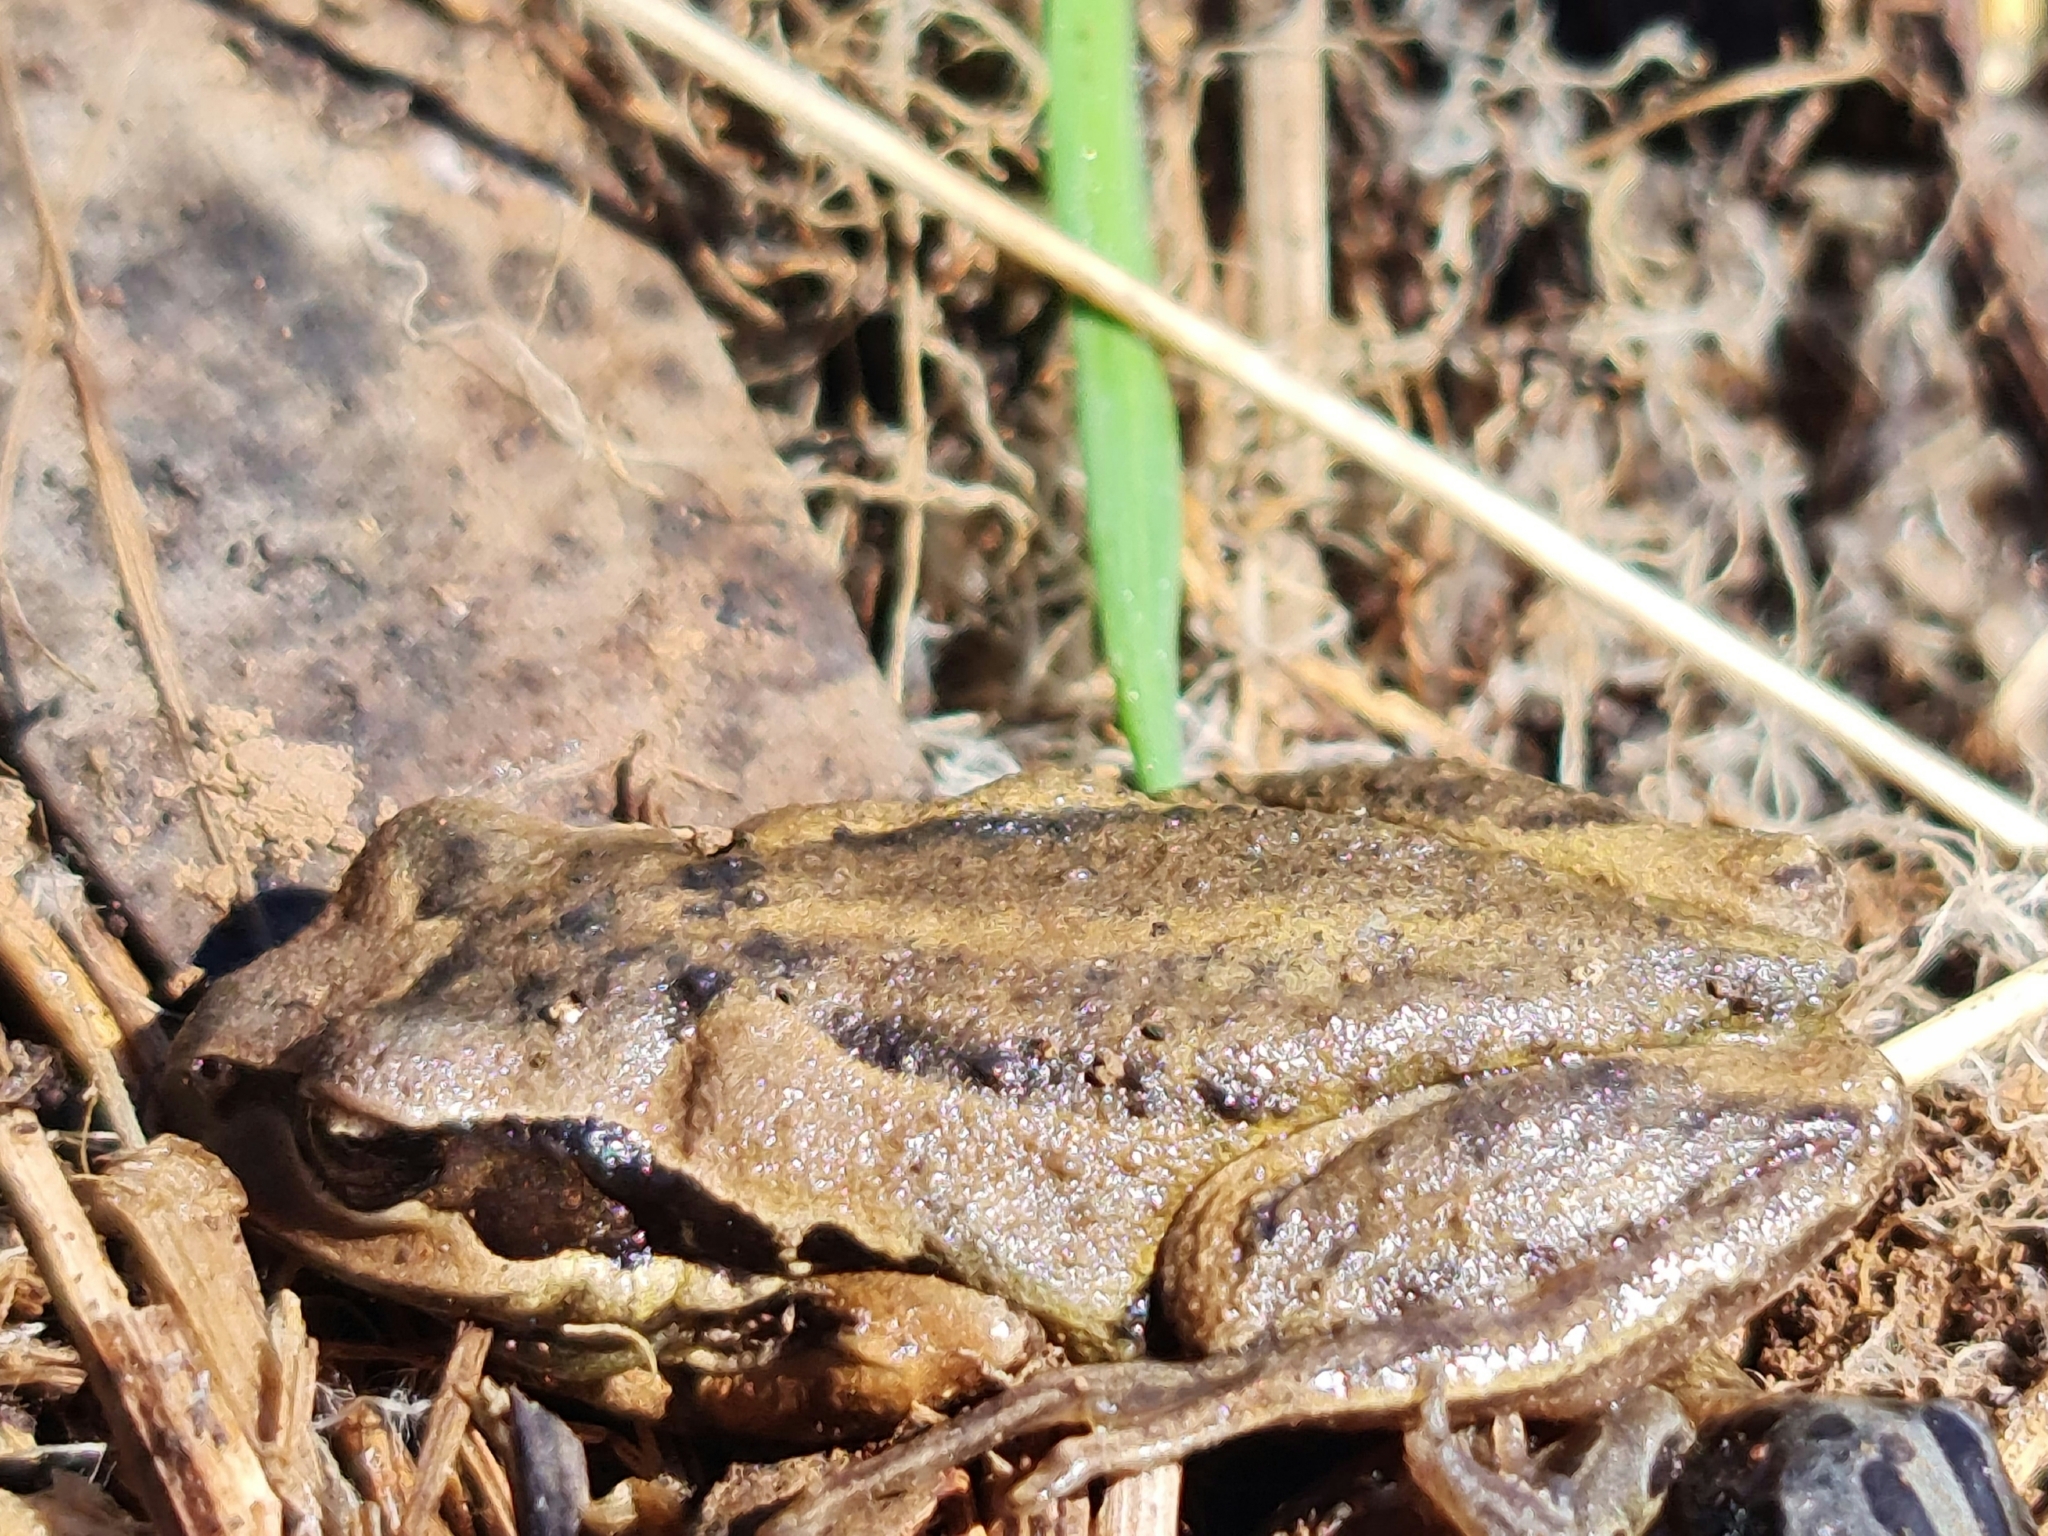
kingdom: Animalia
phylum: Chordata
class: Amphibia
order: Anura
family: Pelodryadidae
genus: Litoria
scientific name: Litoria verreauxii
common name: Alpine tree frog
